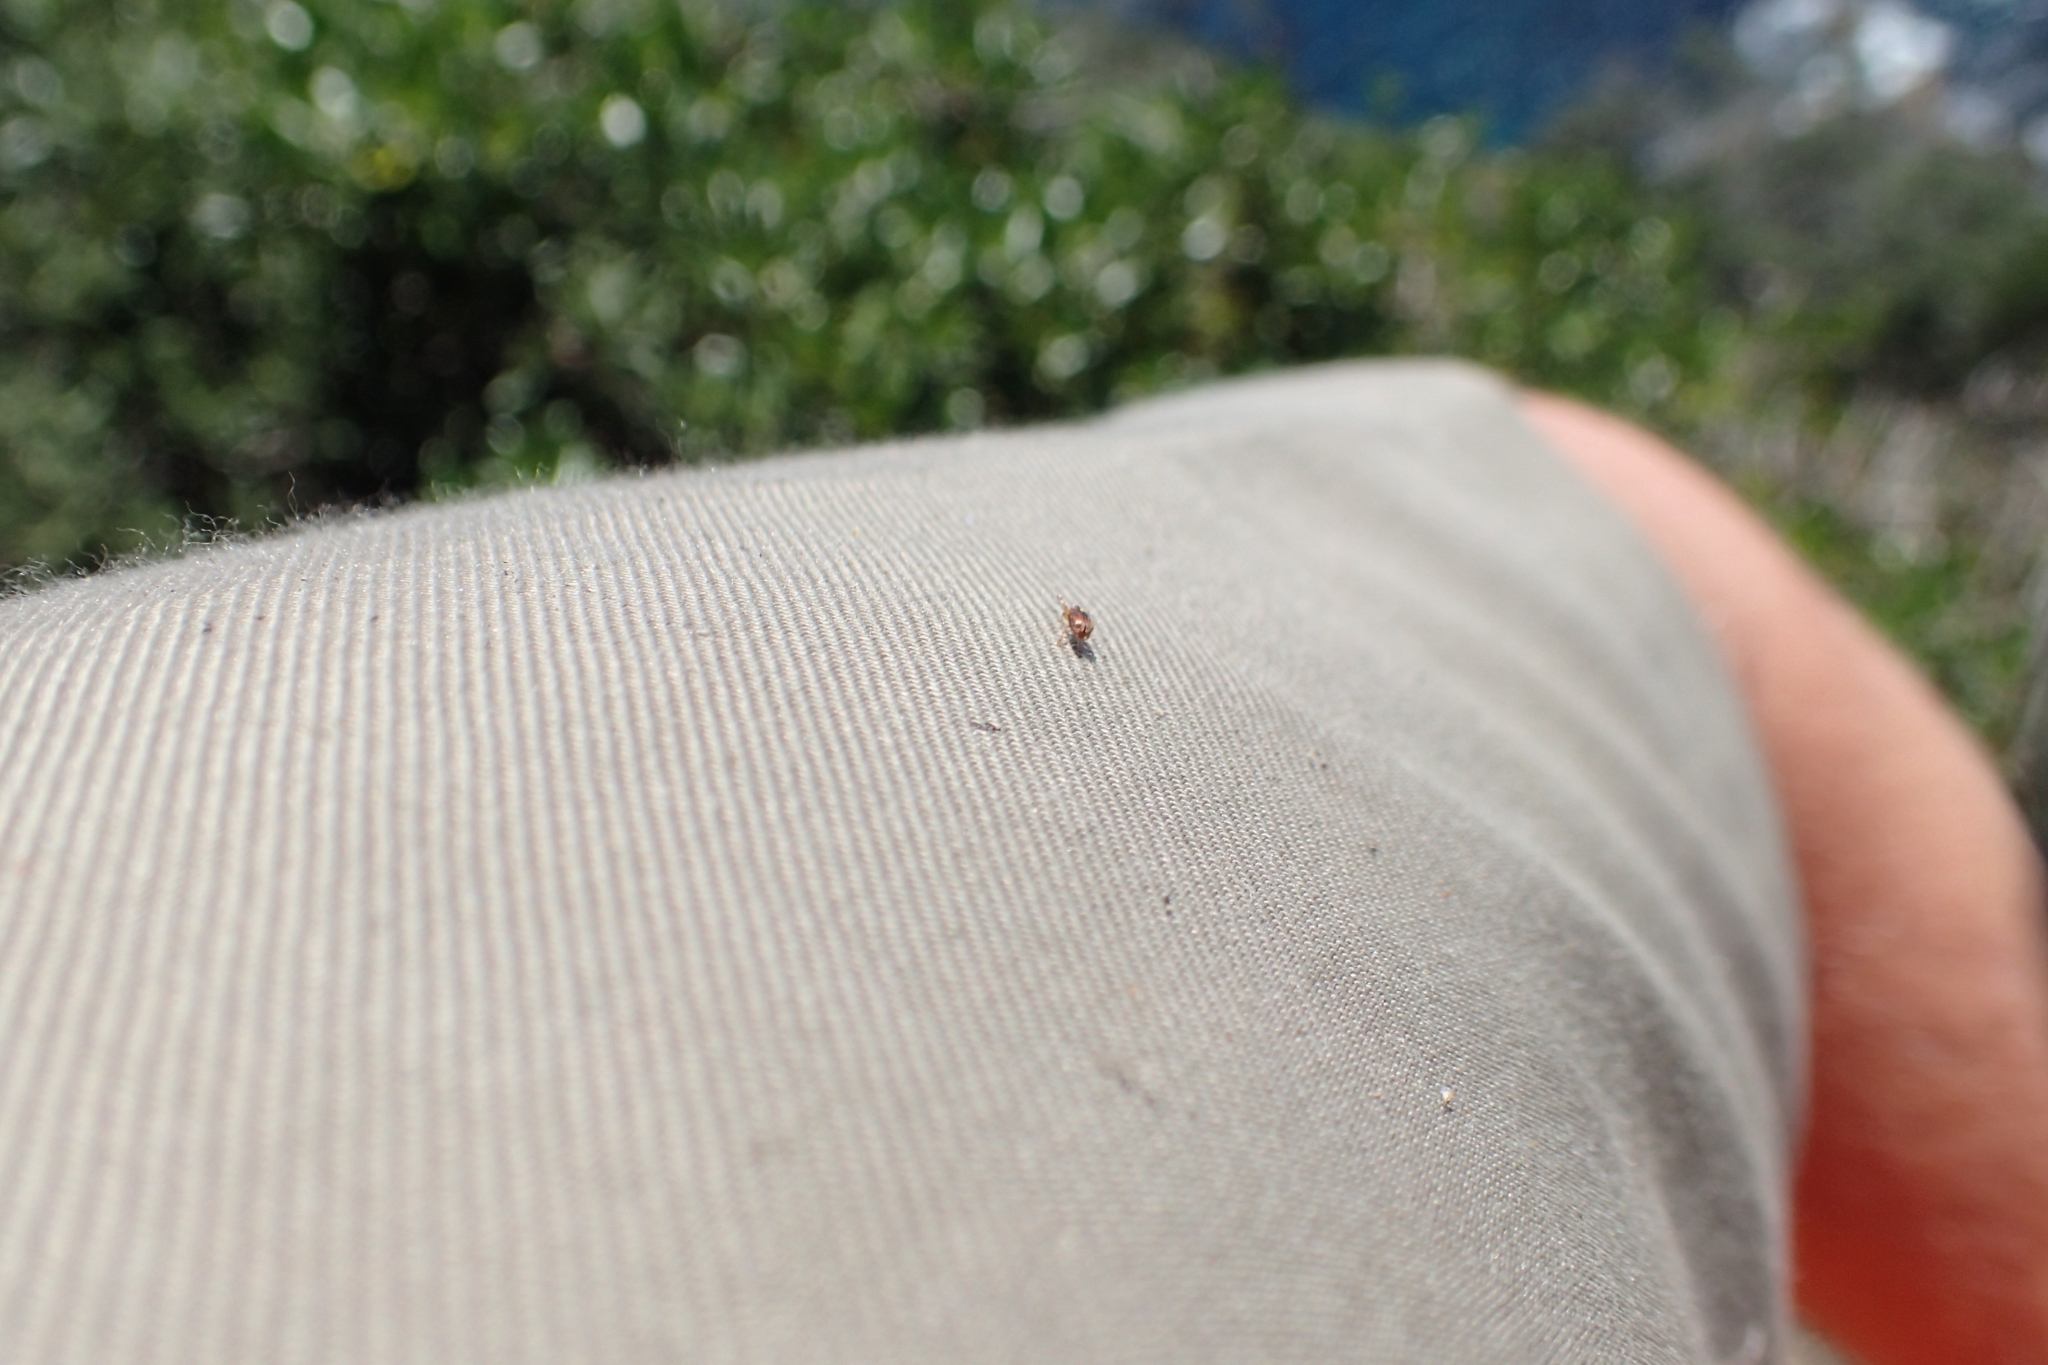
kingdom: Animalia
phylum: Arthropoda
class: Insecta
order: Coleoptera
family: Curculionidae
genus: Aneuma
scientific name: Aneuma
